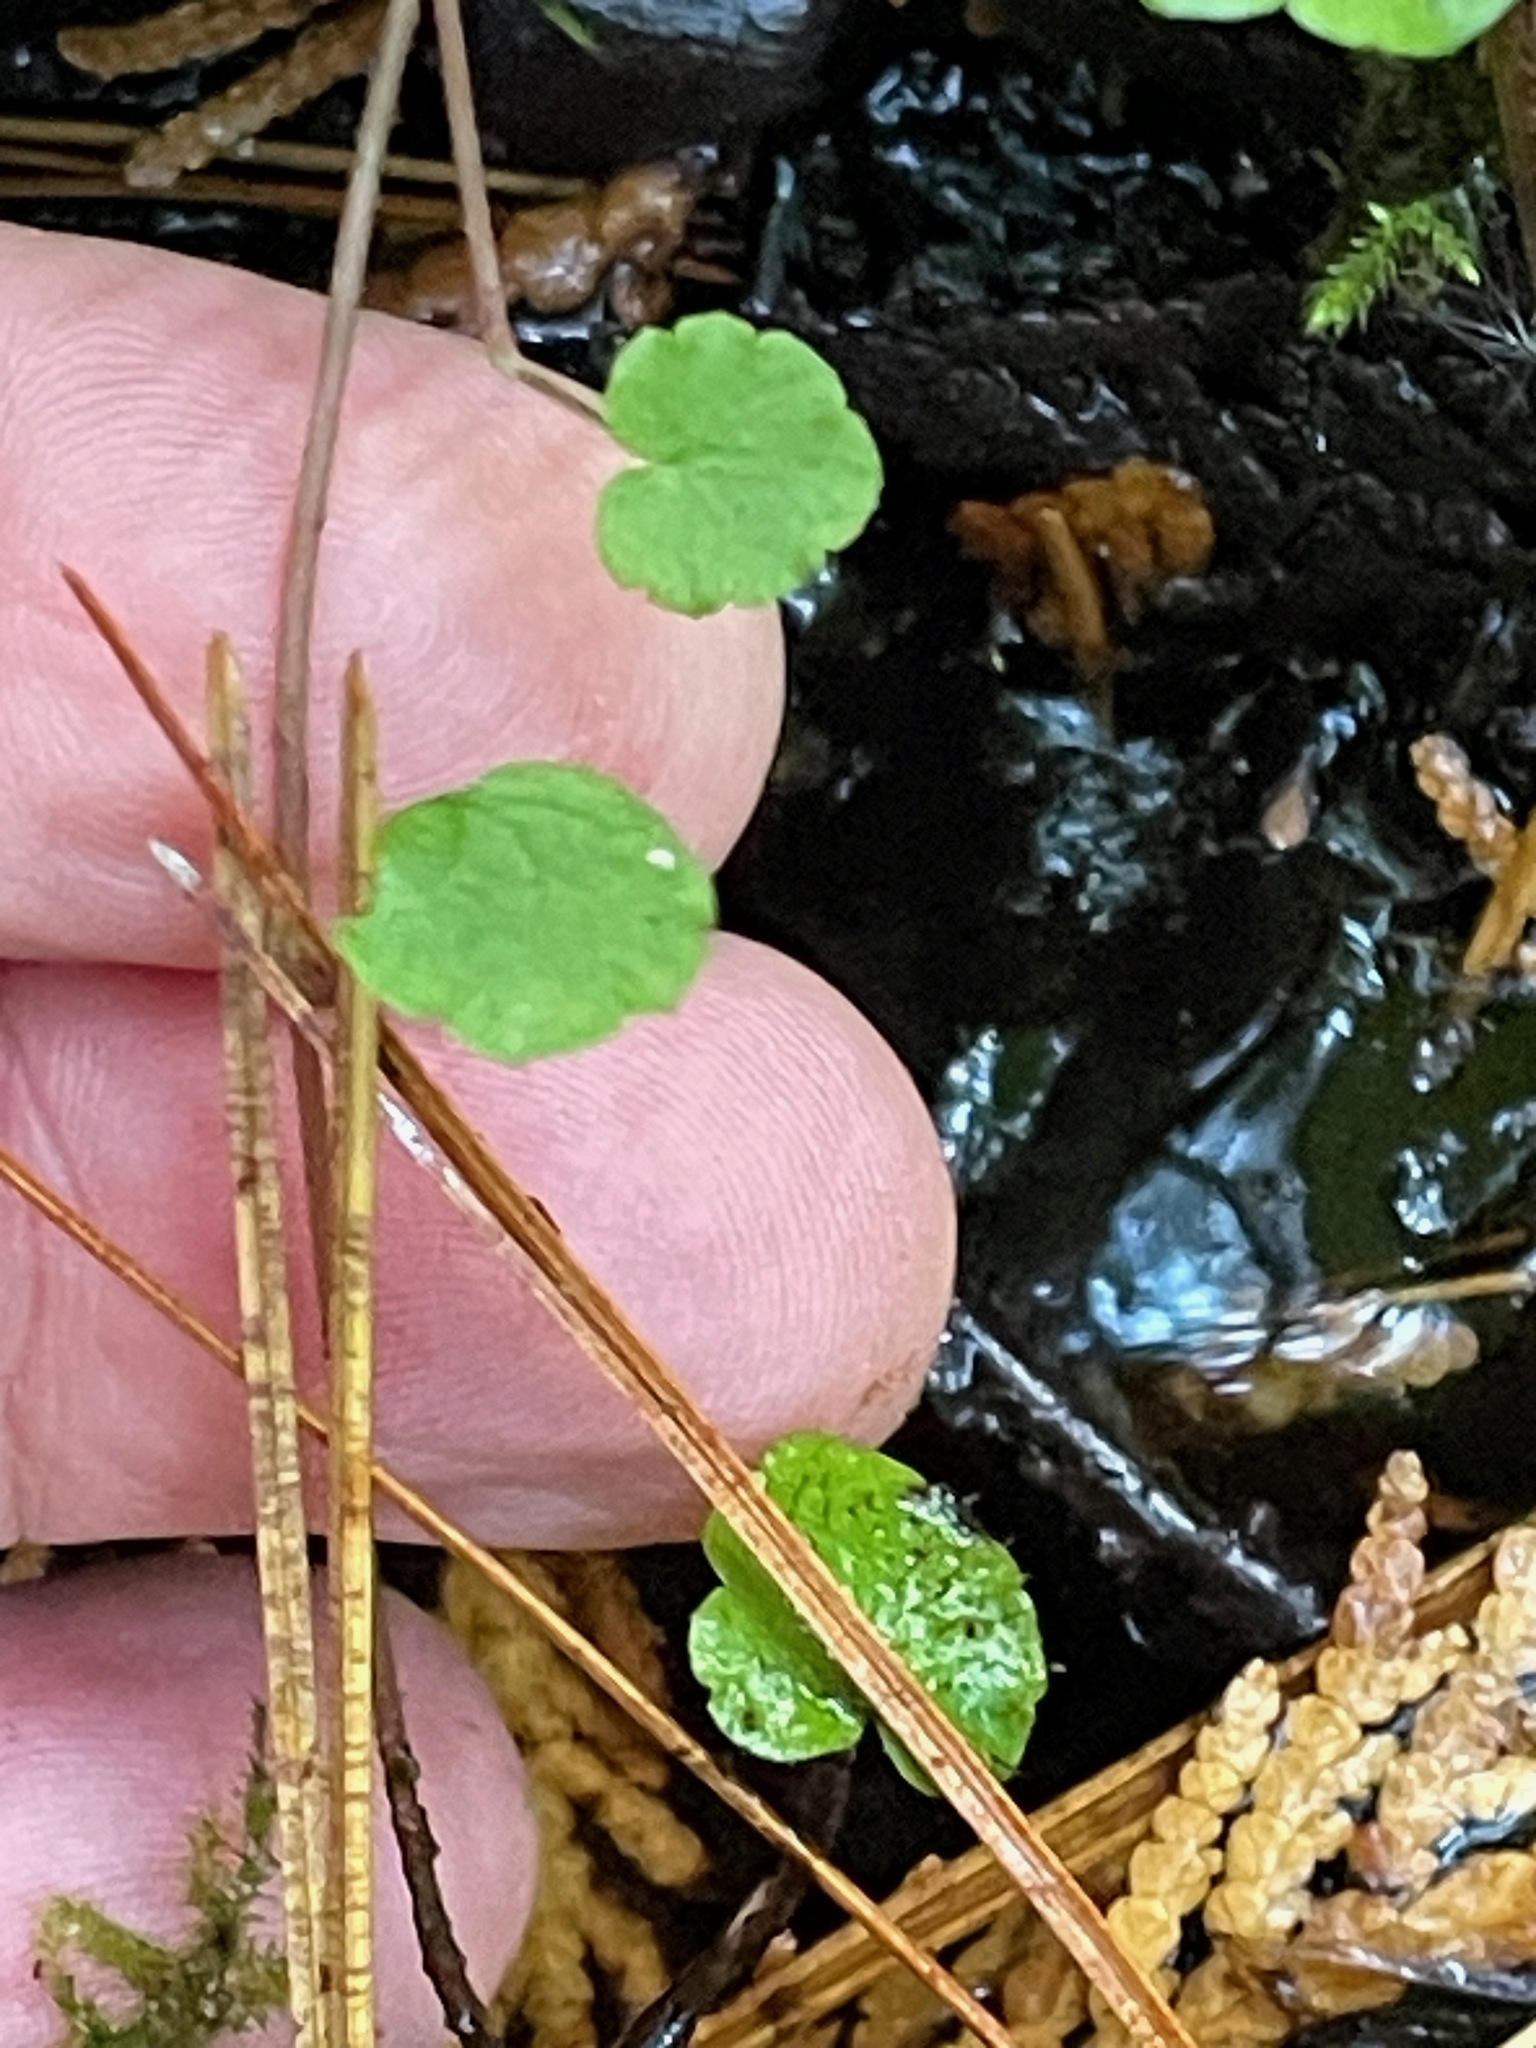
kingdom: Plantae
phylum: Tracheophyta
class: Magnoliopsida
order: Saxifragales
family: Saxifragaceae
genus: Mitella
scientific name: Mitella nuda
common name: Bare-stemmed bishop's-cap
